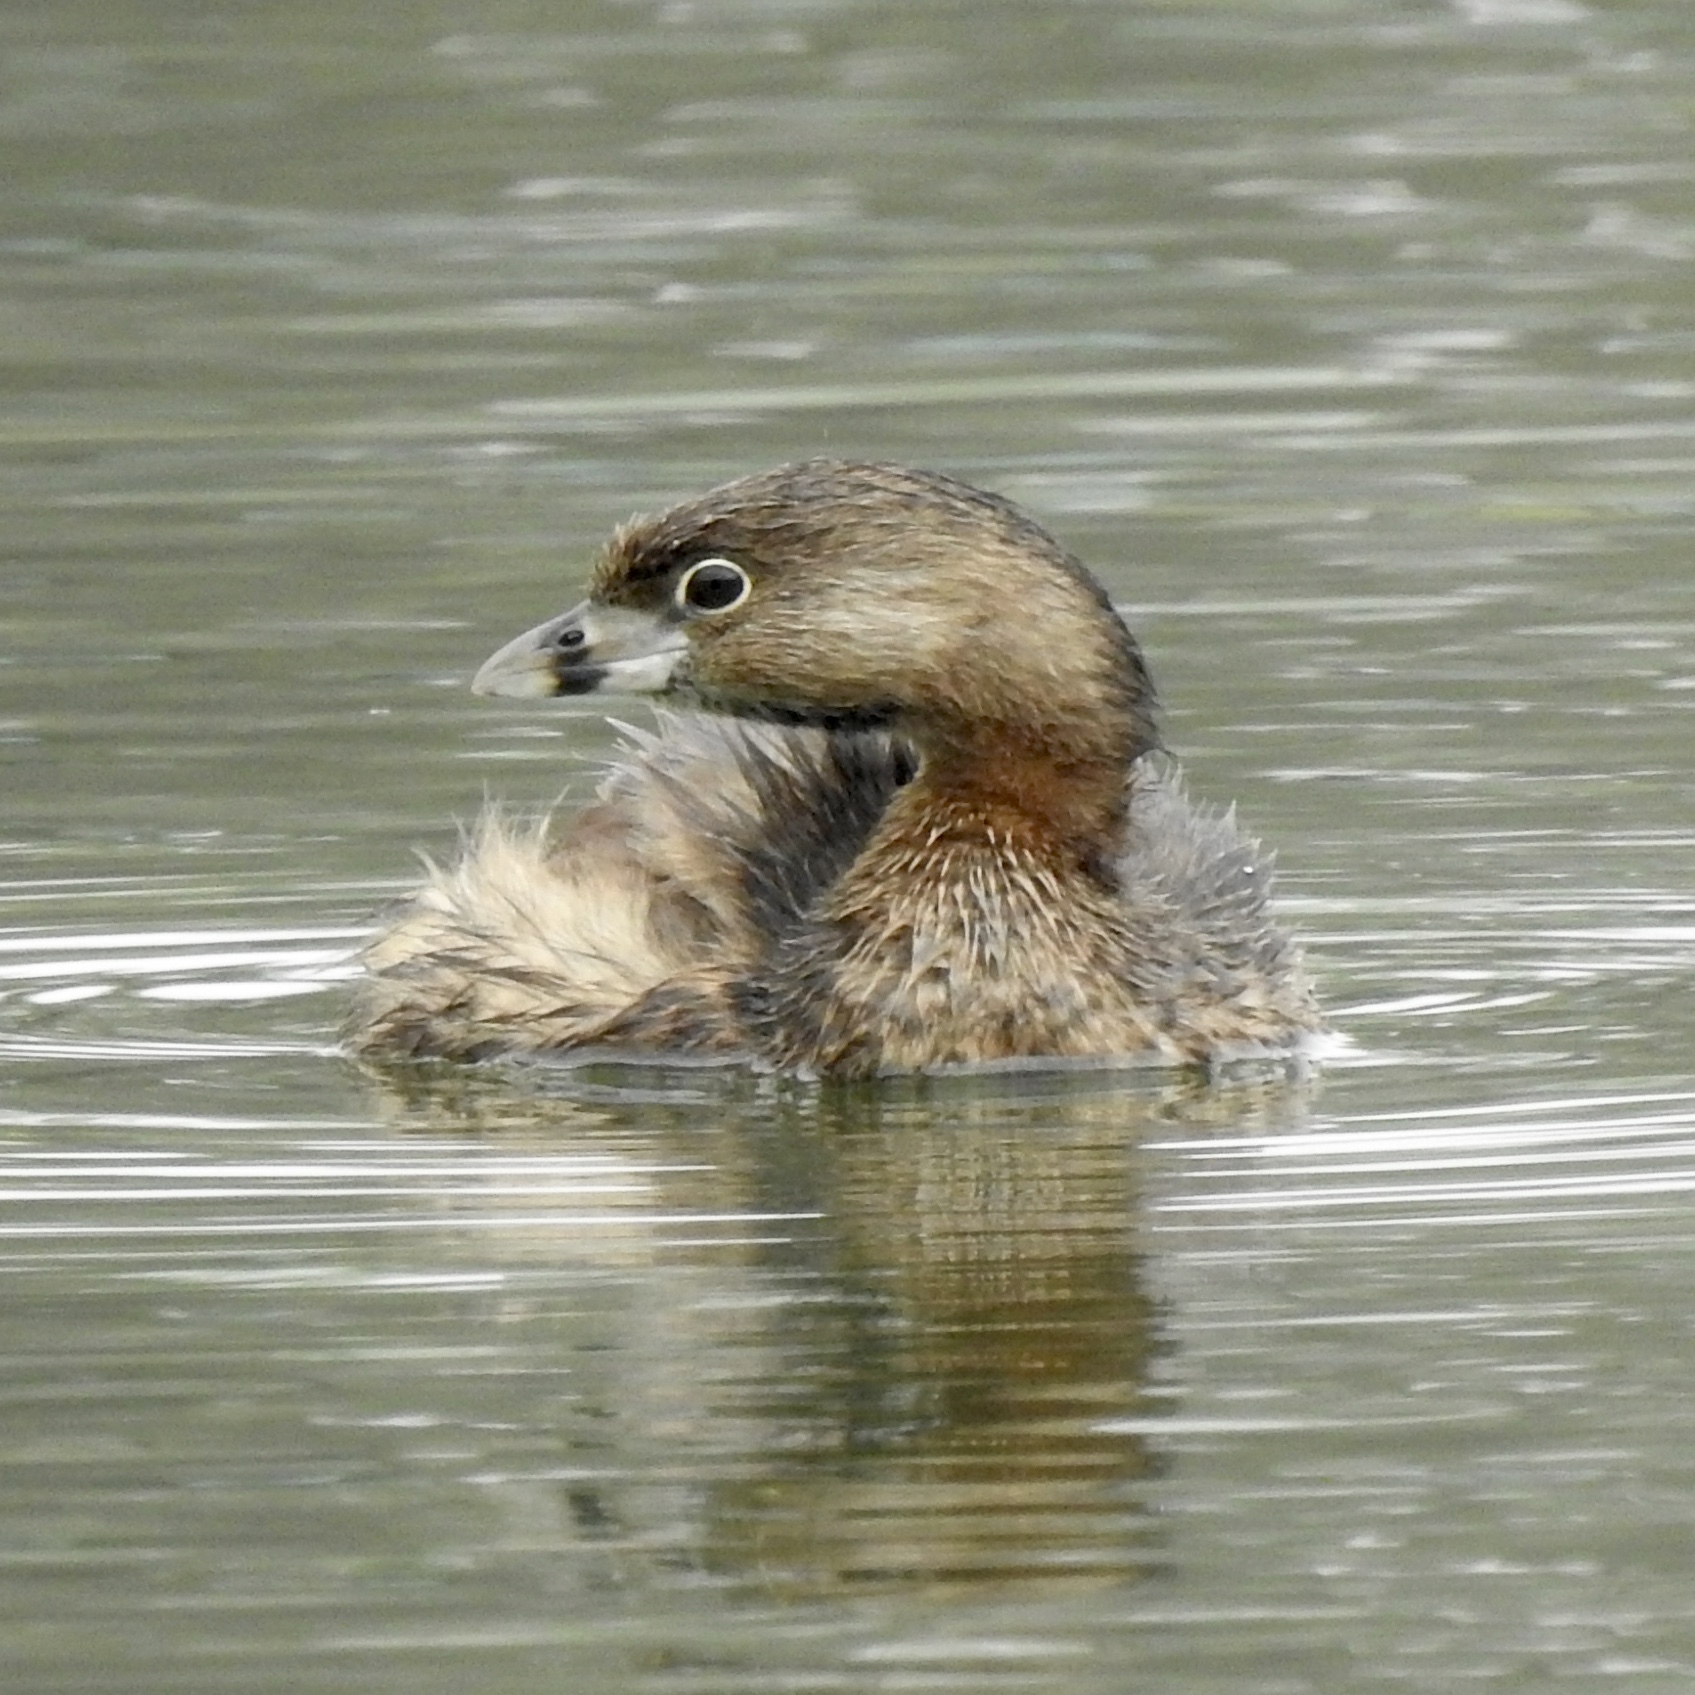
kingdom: Animalia
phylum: Chordata
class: Aves
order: Podicipediformes
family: Podicipedidae
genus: Podilymbus
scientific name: Podilymbus podiceps
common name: Pied-billed grebe
